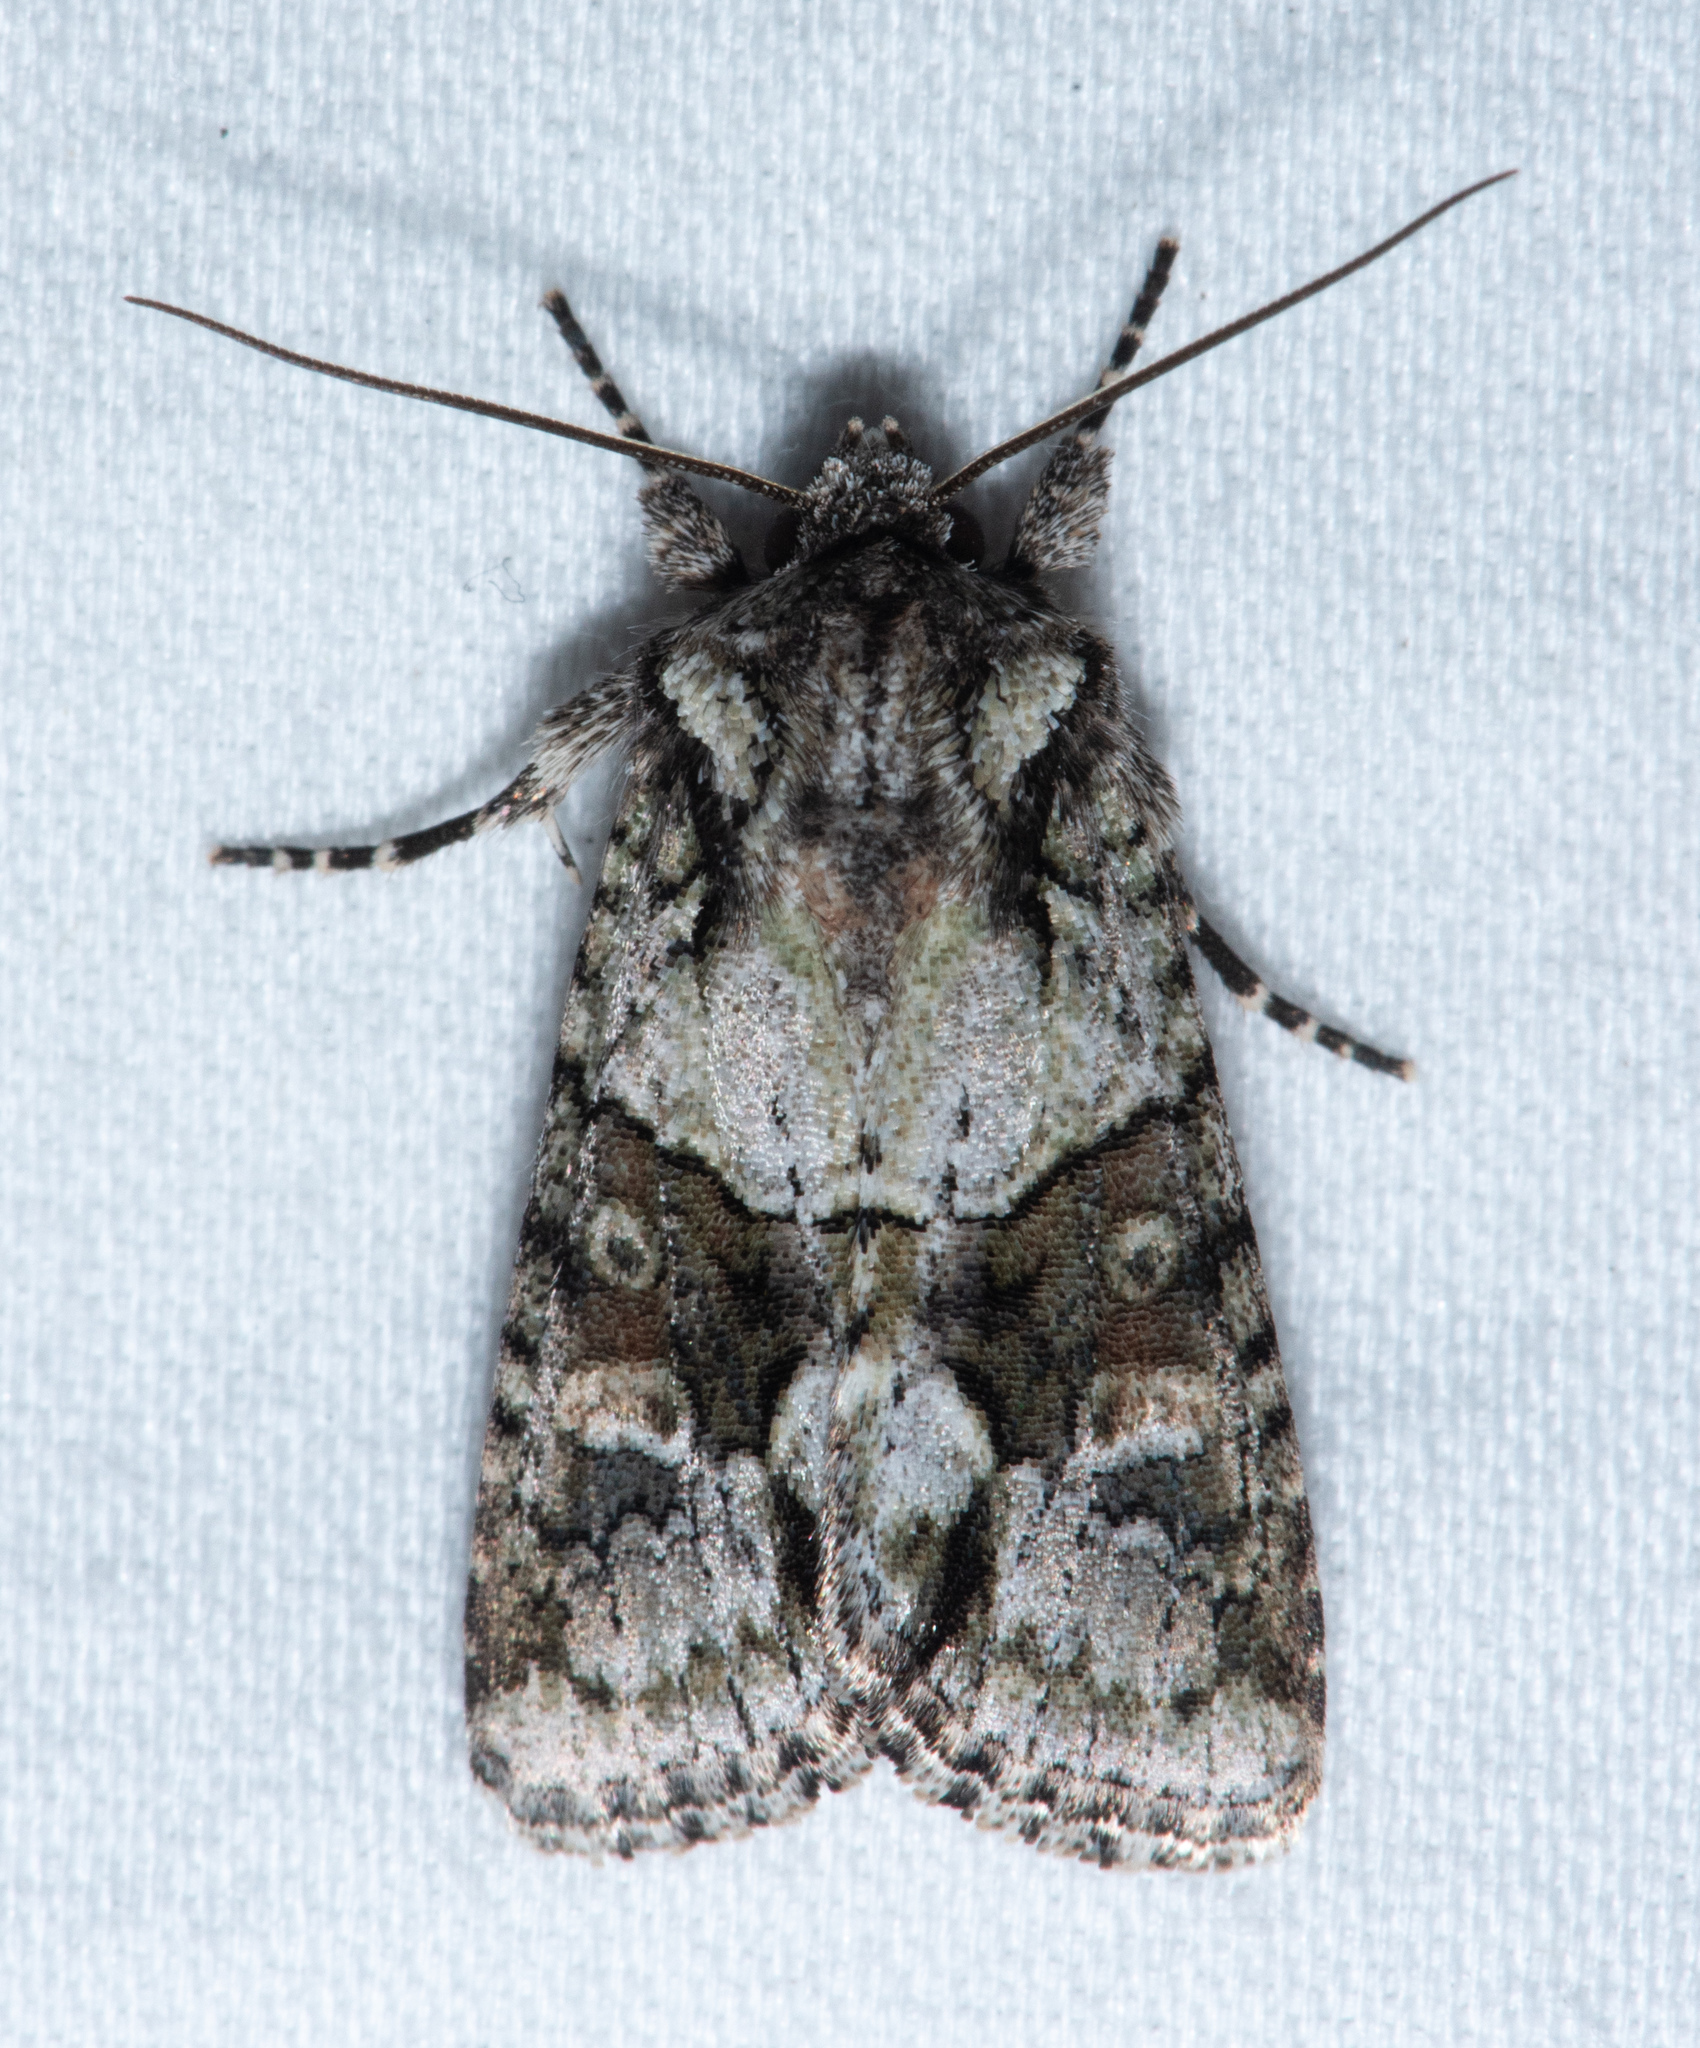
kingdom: Animalia
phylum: Arthropoda
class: Insecta
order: Lepidoptera
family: Noctuidae
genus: Lacinipolia
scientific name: Lacinipolia quadrilineata
